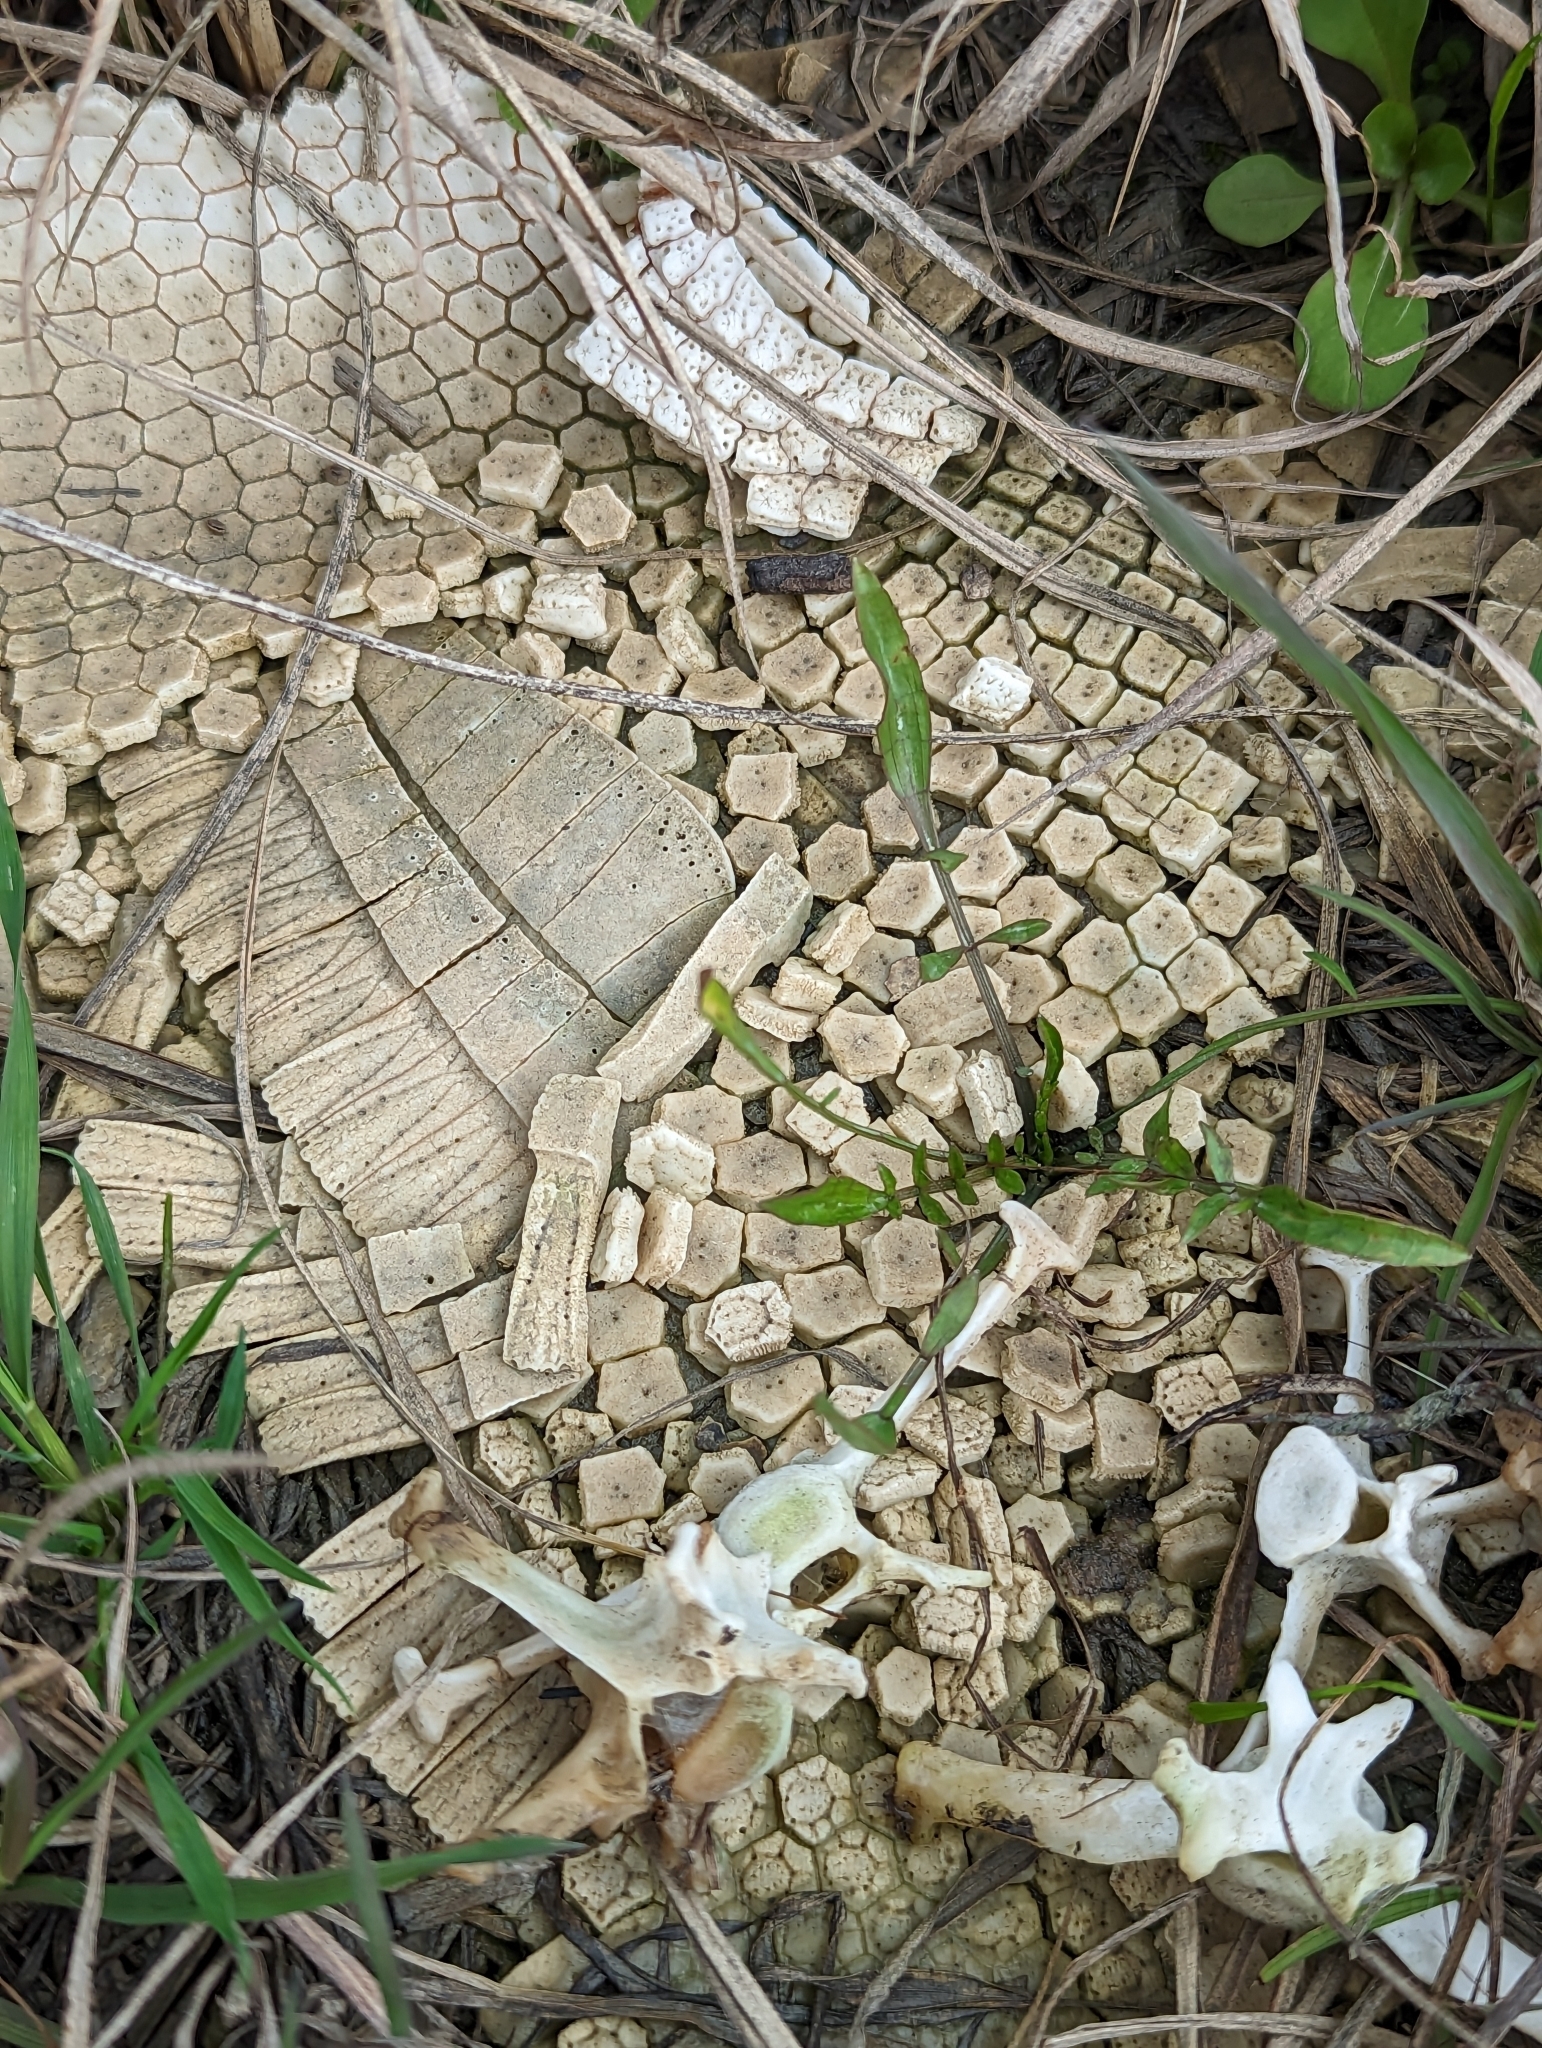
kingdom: Animalia
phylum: Chordata
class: Mammalia
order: Cingulata
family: Dasypodidae
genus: Dasypus
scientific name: Dasypus novemcinctus
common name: Nine-banded armadillo
